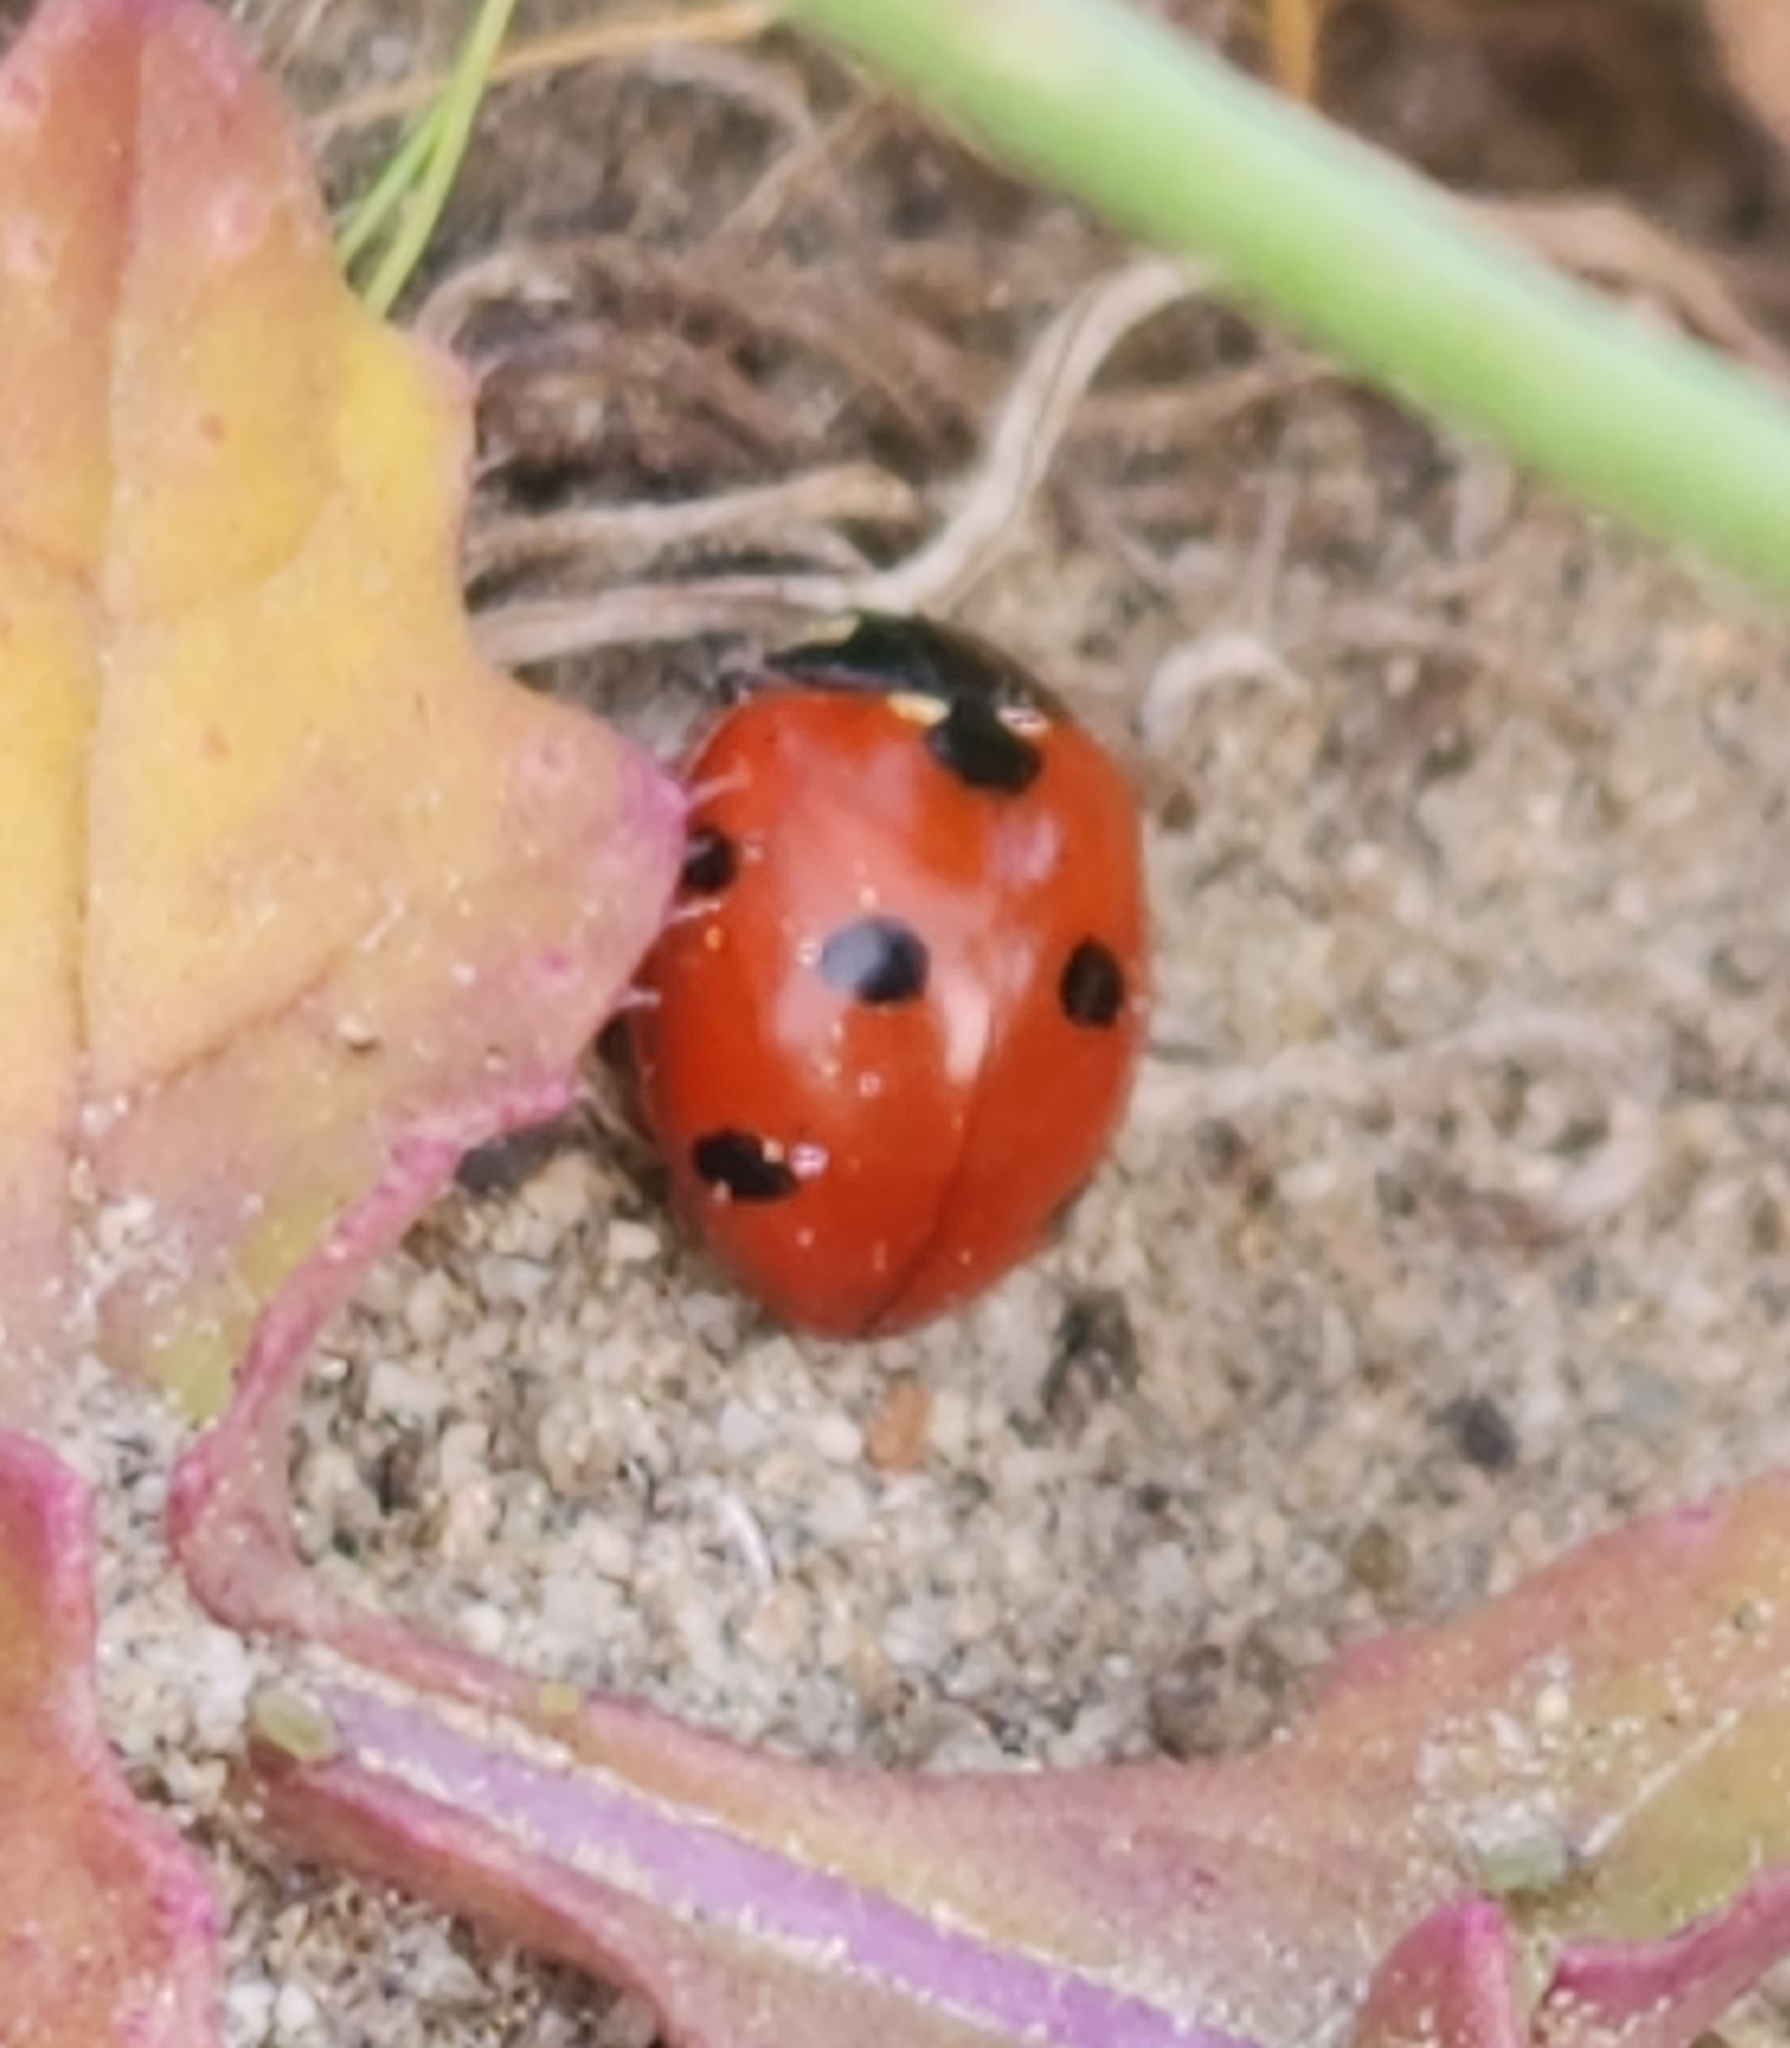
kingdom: Animalia
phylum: Arthropoda
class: Insecta
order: Coleoptera
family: Coccinellidae
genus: Coccinella
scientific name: Coccinella septempunctata
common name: Sevenspotted lady beetle
